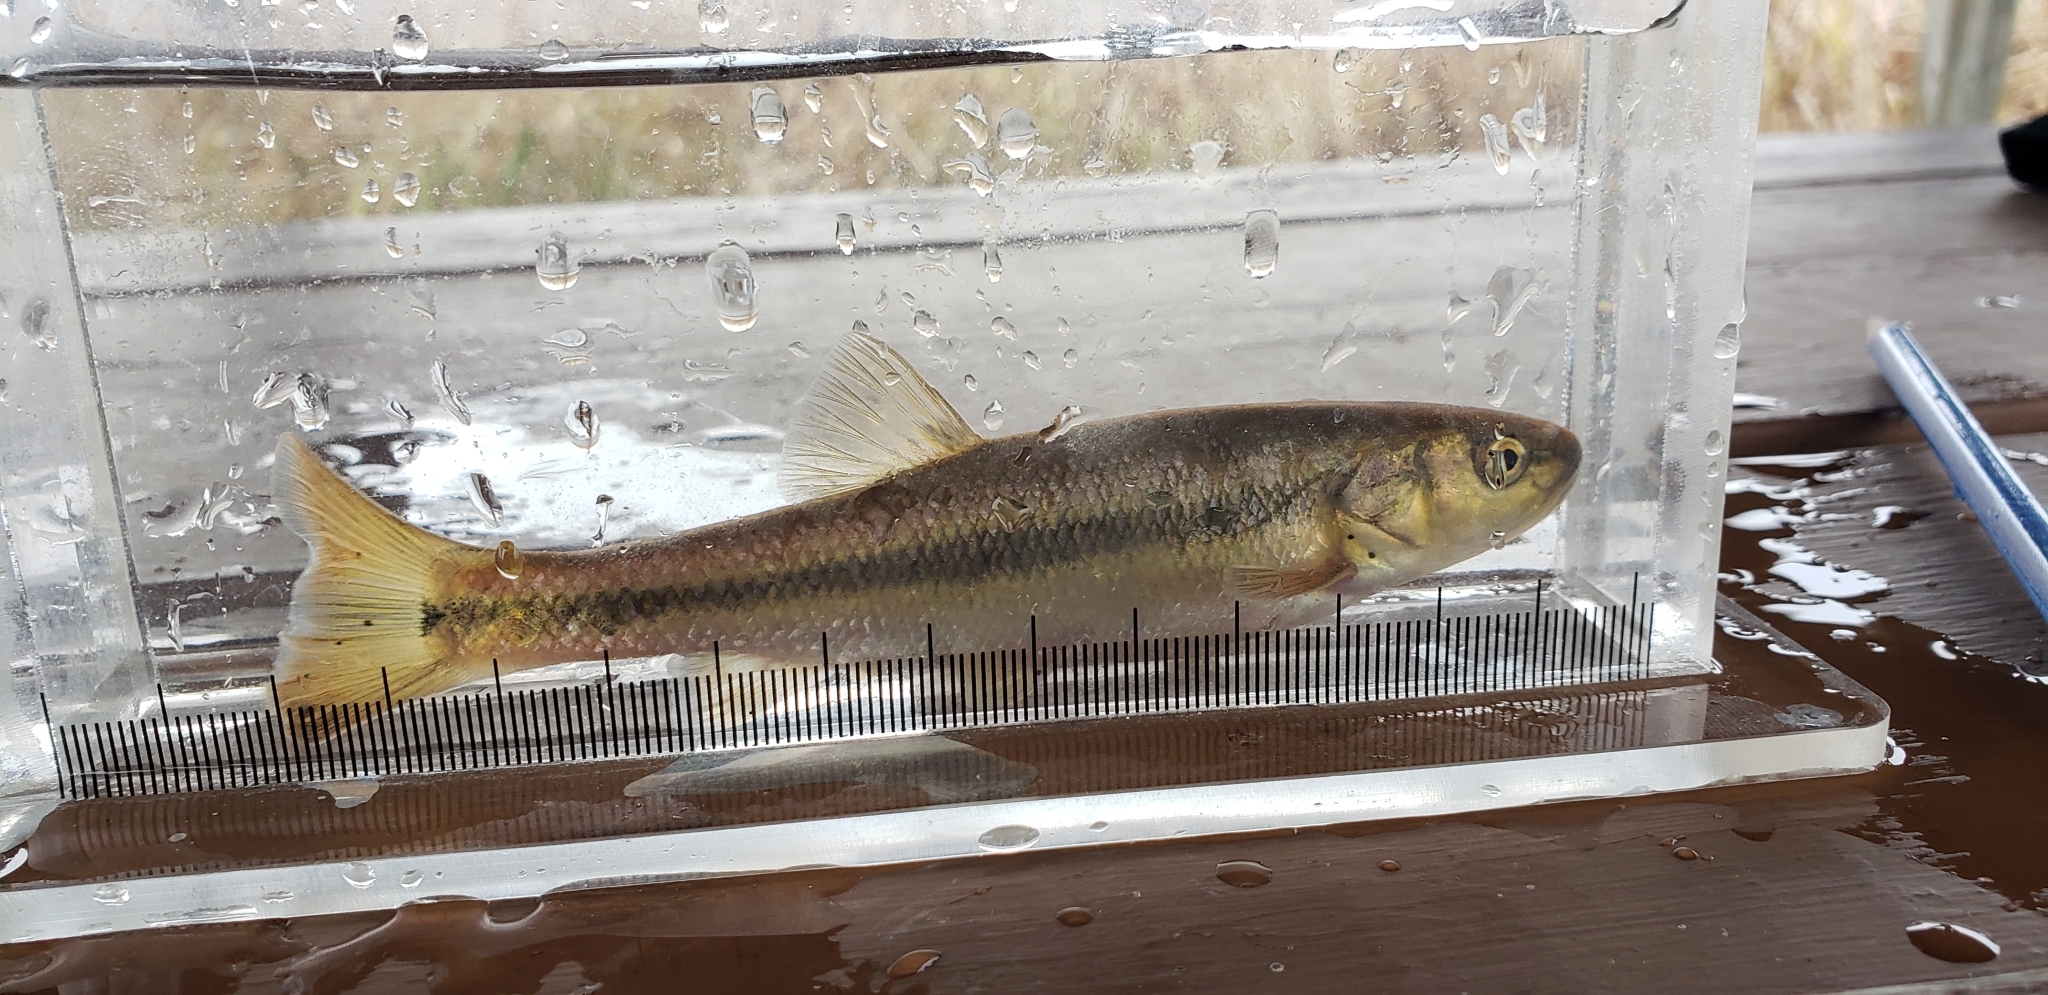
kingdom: Animalia
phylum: Chordata
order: Cypriniformes
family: Cyprinidae
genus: Semotilus
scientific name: Semotilus atromaculatus
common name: Creek chub
